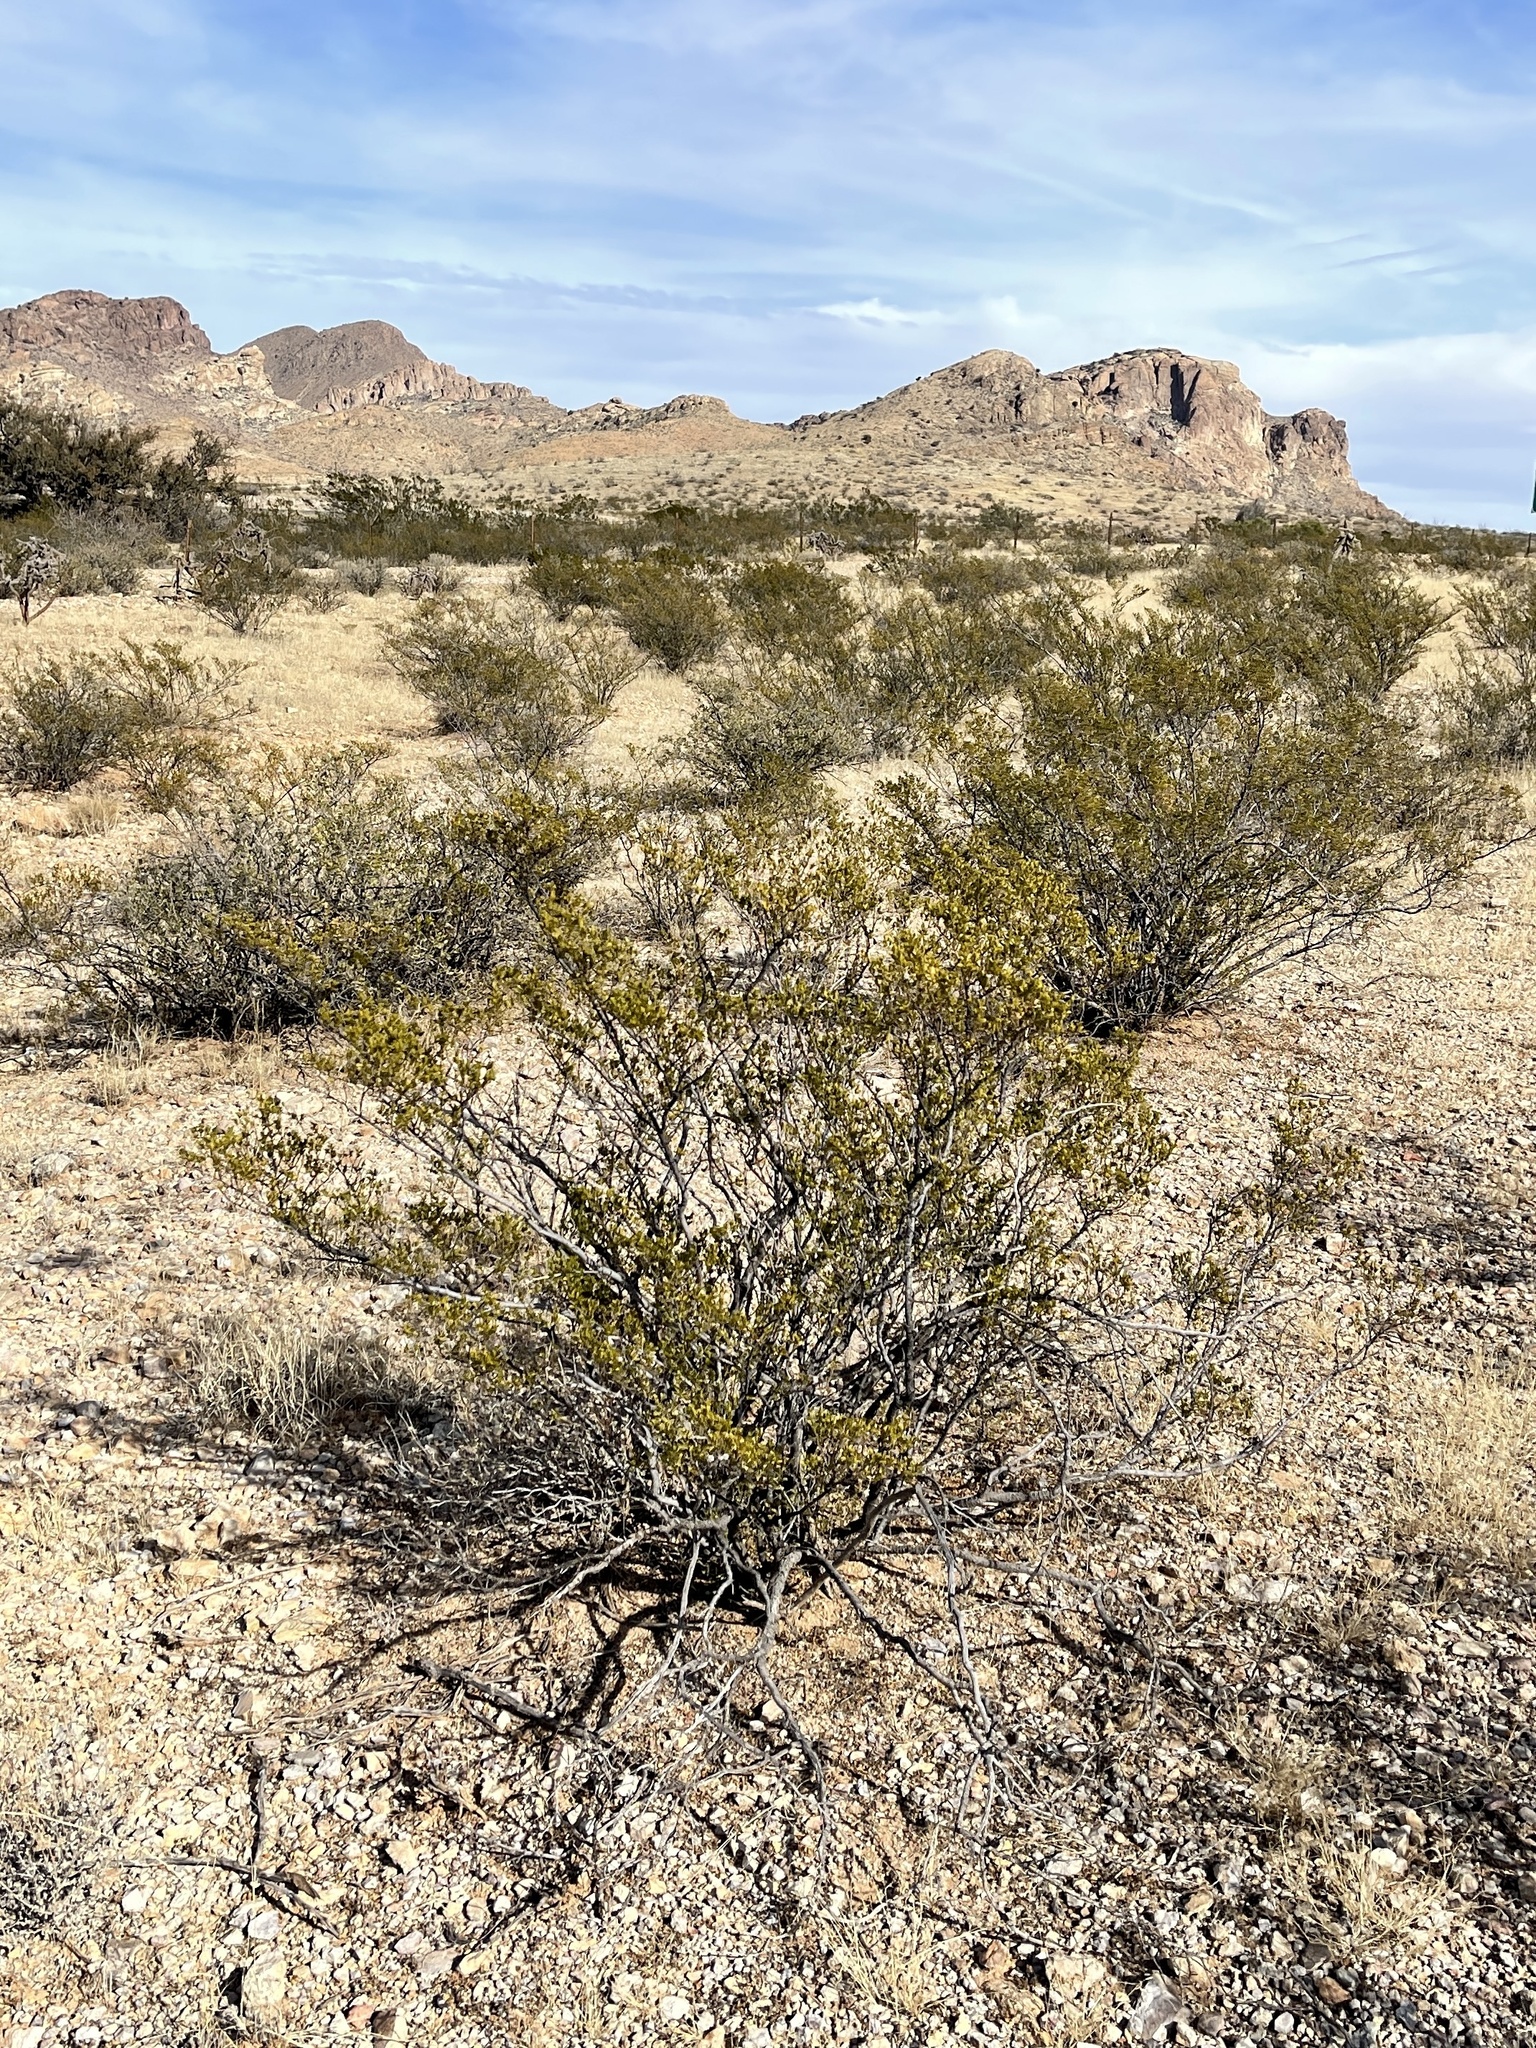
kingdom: Plantae
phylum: Tracheophyta
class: Magnoliopsida
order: Zygophyllales
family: Zygophyllaceae
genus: Larrea
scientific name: Larrea tridentata
